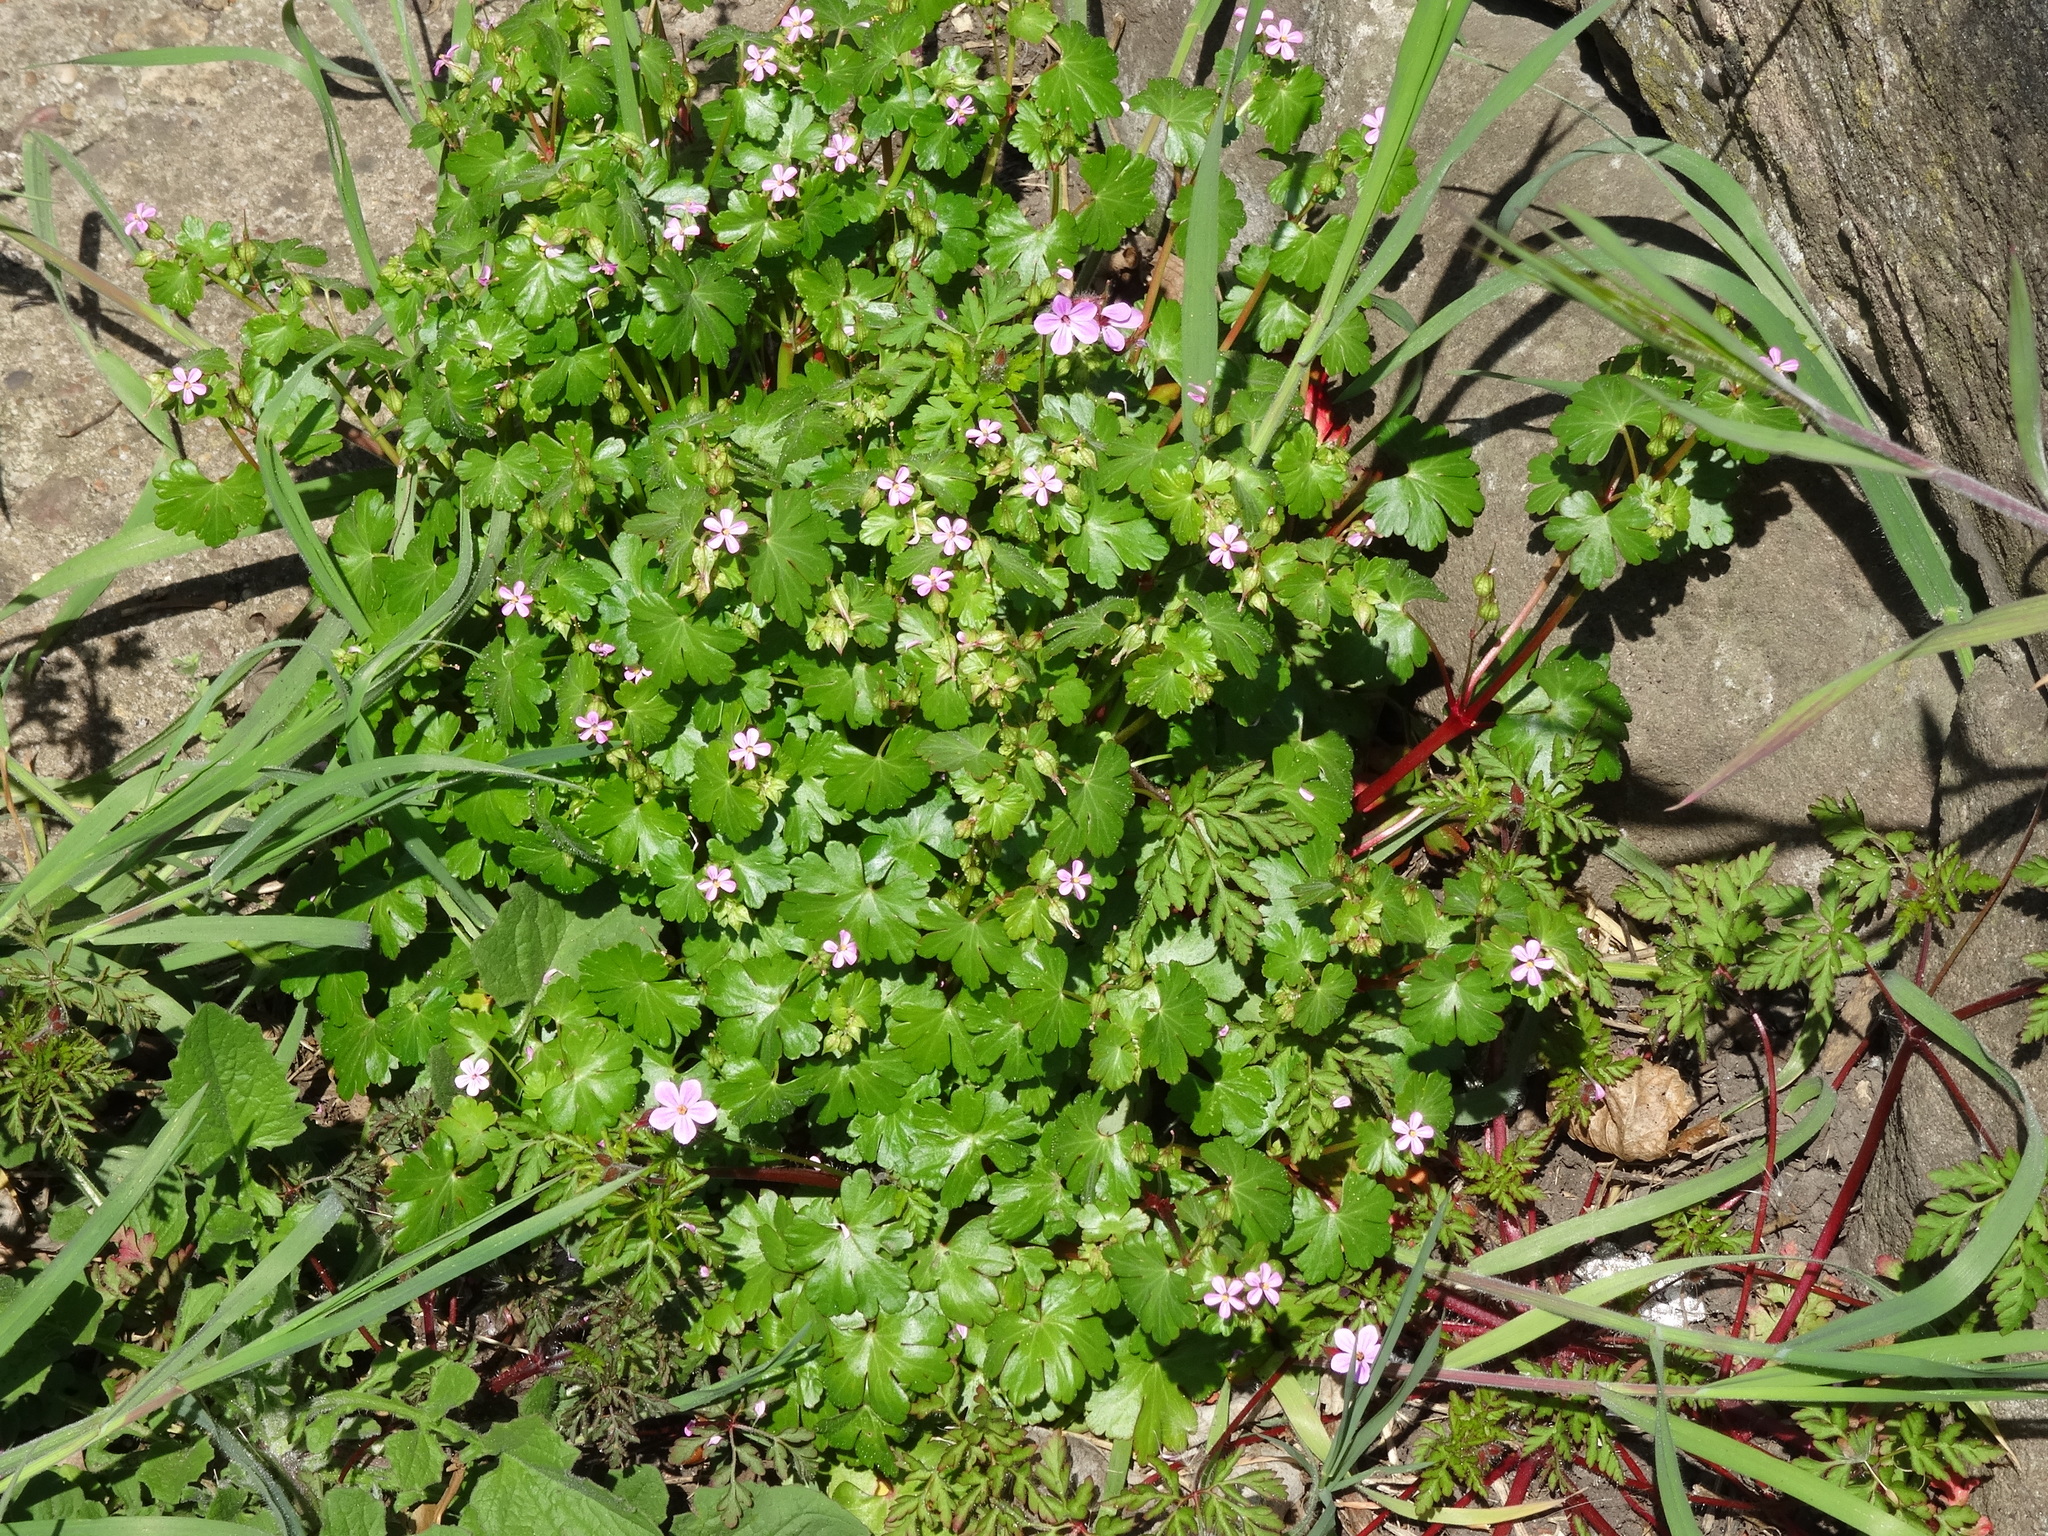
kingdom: Plantae
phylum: Tracheophyta
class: Magnoliopsida
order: Geraniales
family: Geraniaceae
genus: Geranium
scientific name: Geranium lucidum
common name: Shining crane's-bill
